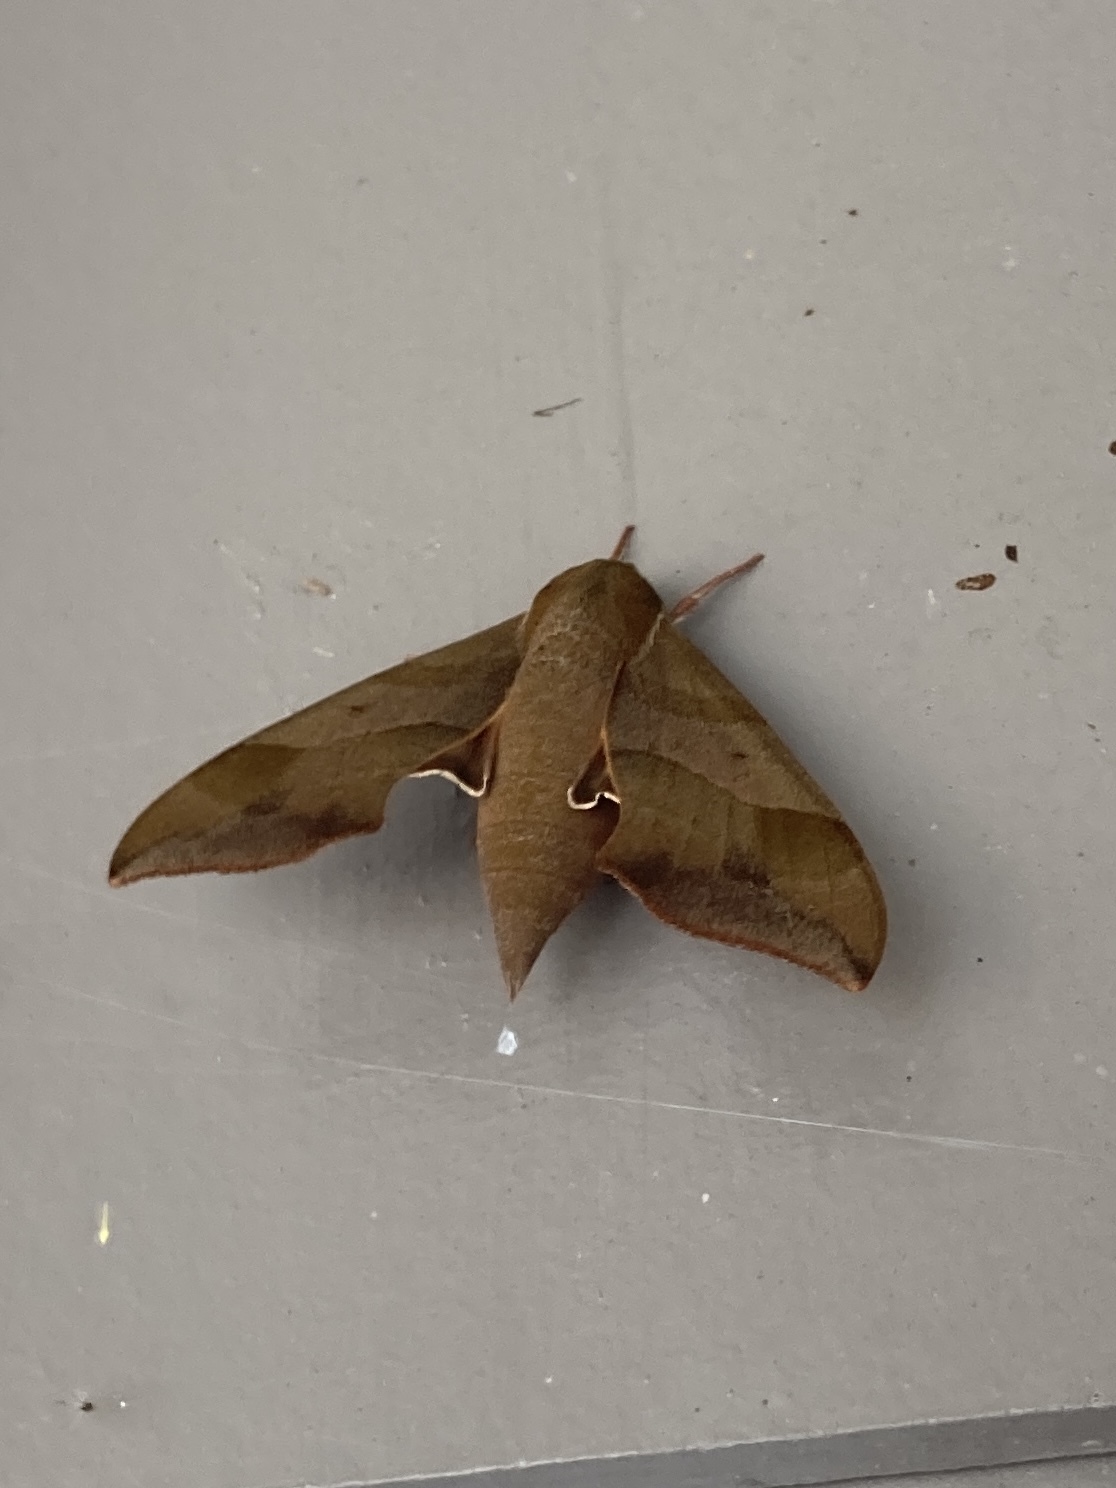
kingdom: Animalia
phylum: Arthropoda
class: Insecta
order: Lepidoptera
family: Sphingidae
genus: Darapsa
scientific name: Darapsa myron
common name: Hog sphinx
